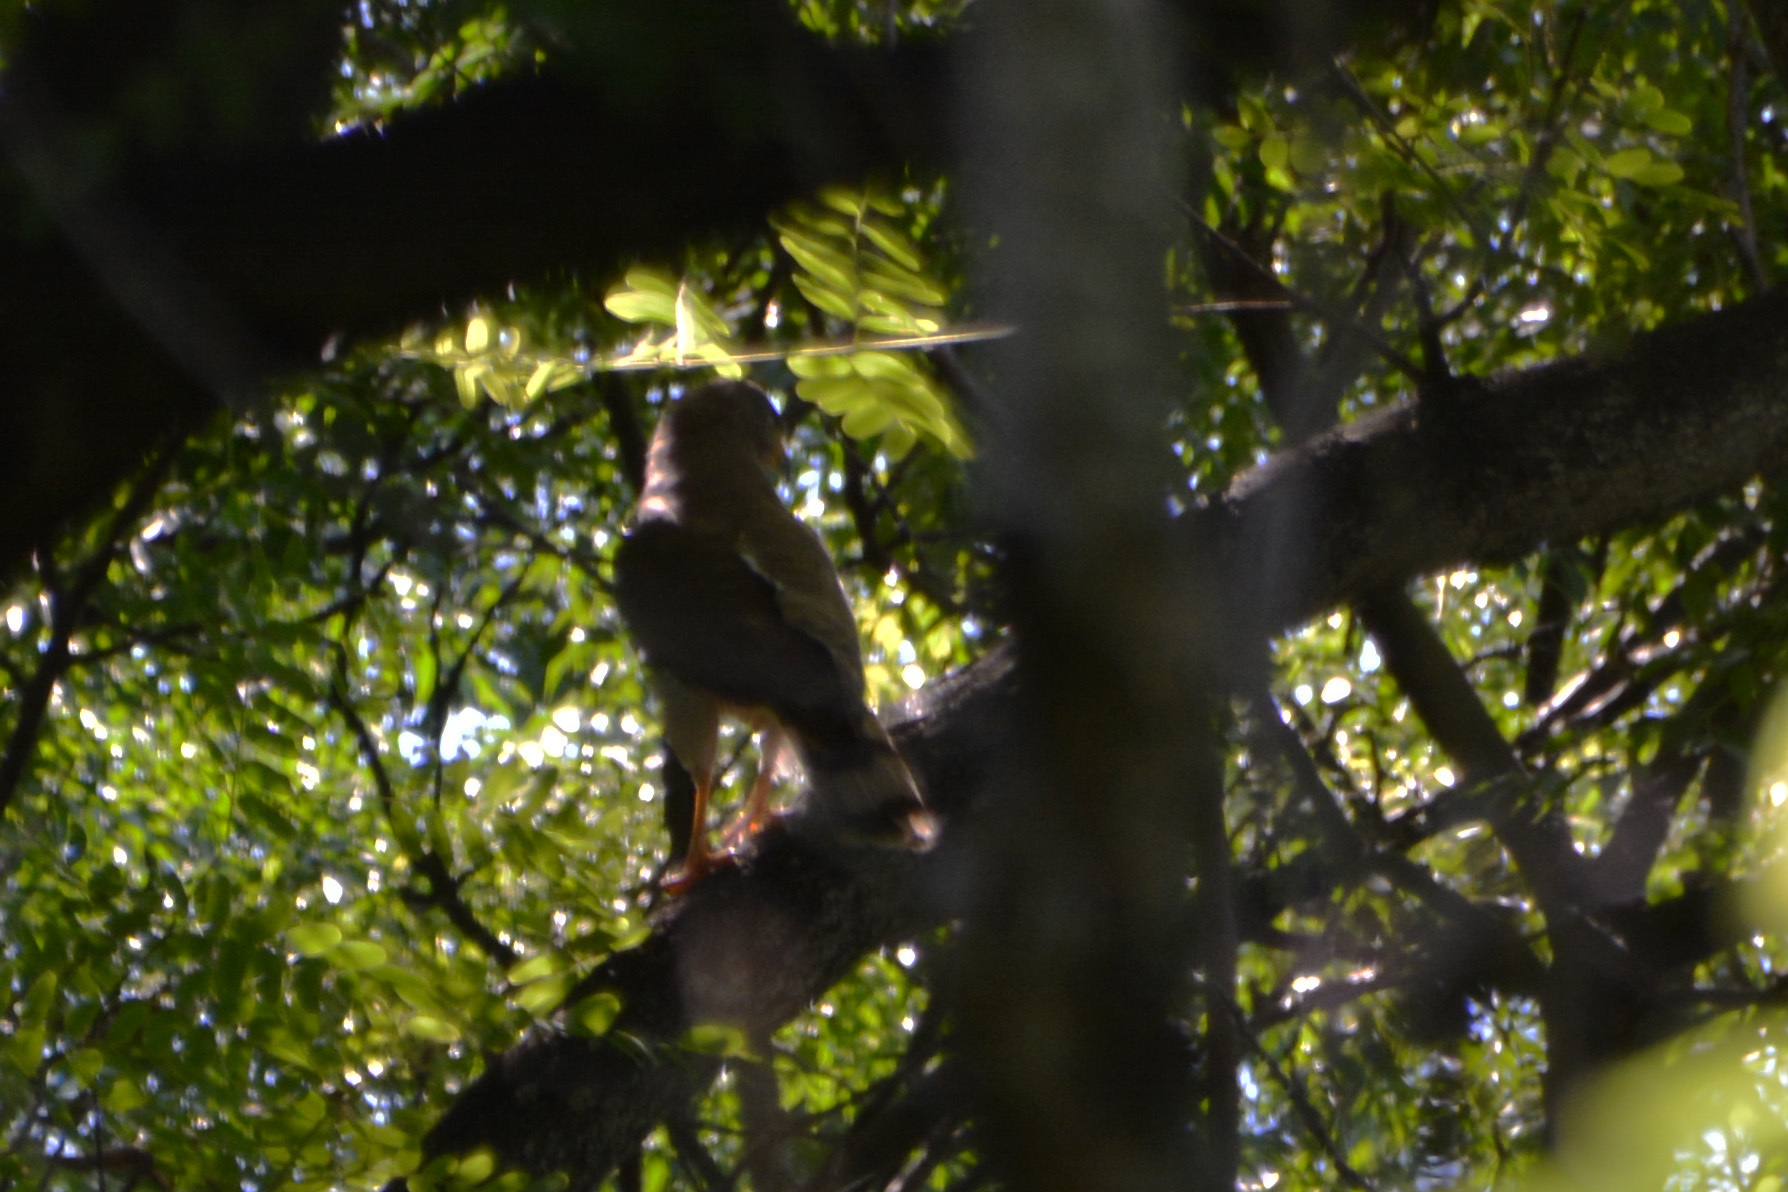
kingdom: Animalia
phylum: Chordata
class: Aves
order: Accipitriformes
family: Accipitridae
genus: Rupornis
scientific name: Rupornis magnirostris
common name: Roadside hawk
